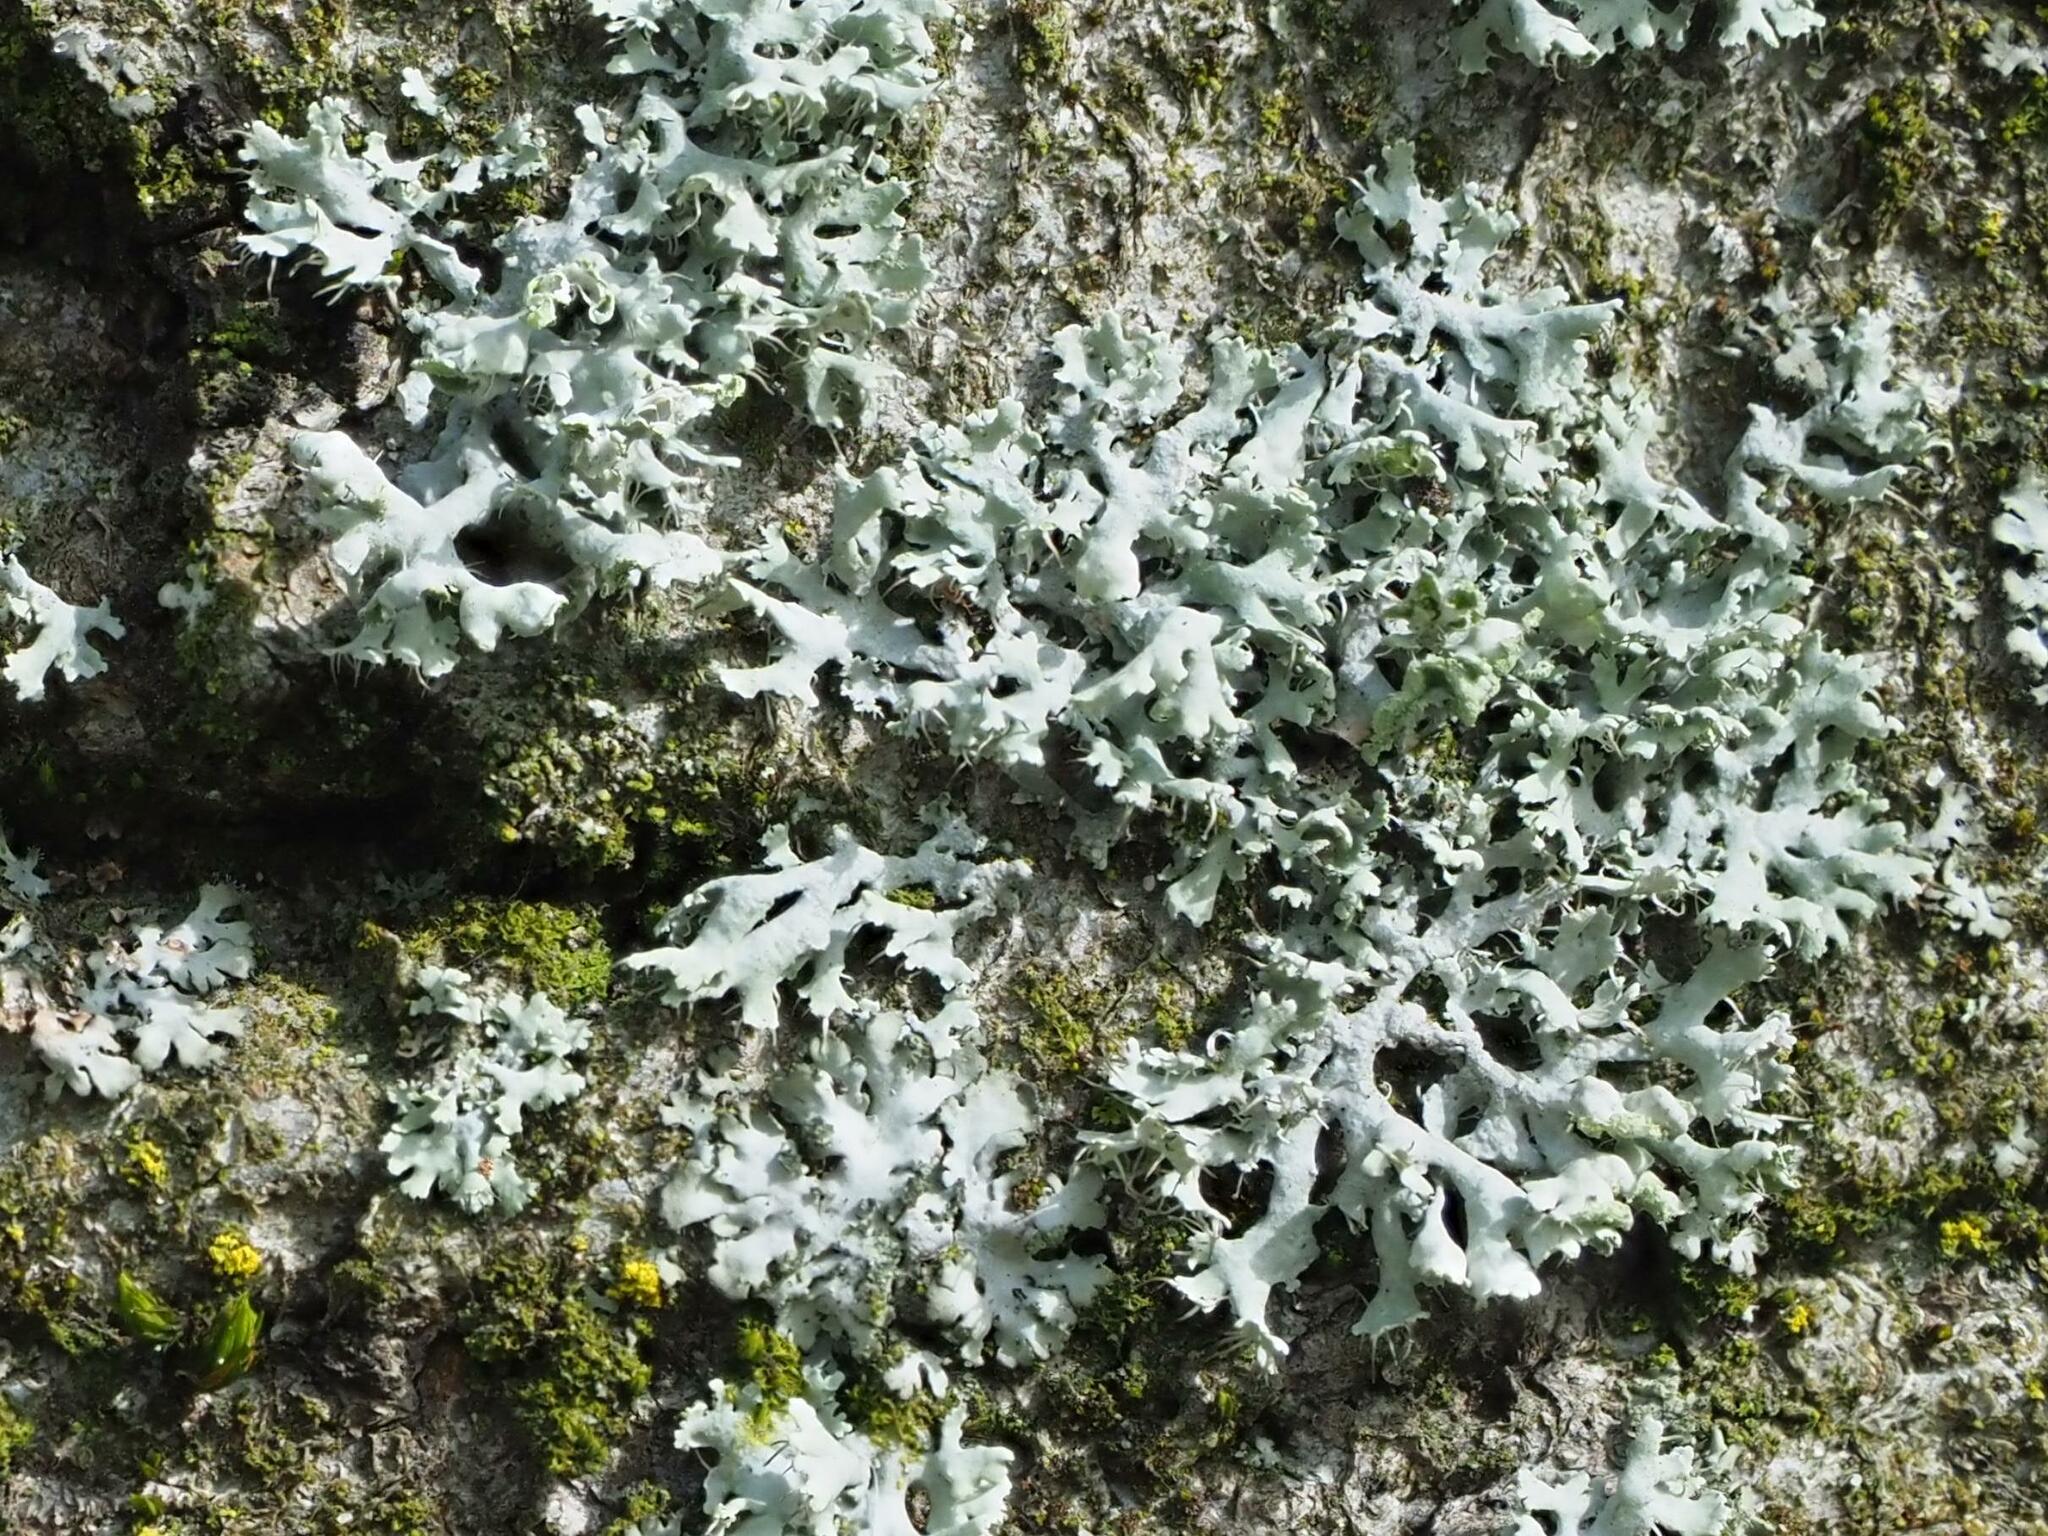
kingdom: Fungi
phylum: Ascomycota
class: Lecanoromycetes
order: Caliciales
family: Physciaceae
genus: Physcia
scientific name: Physcia adscendens
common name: Hooded rosette lichen
